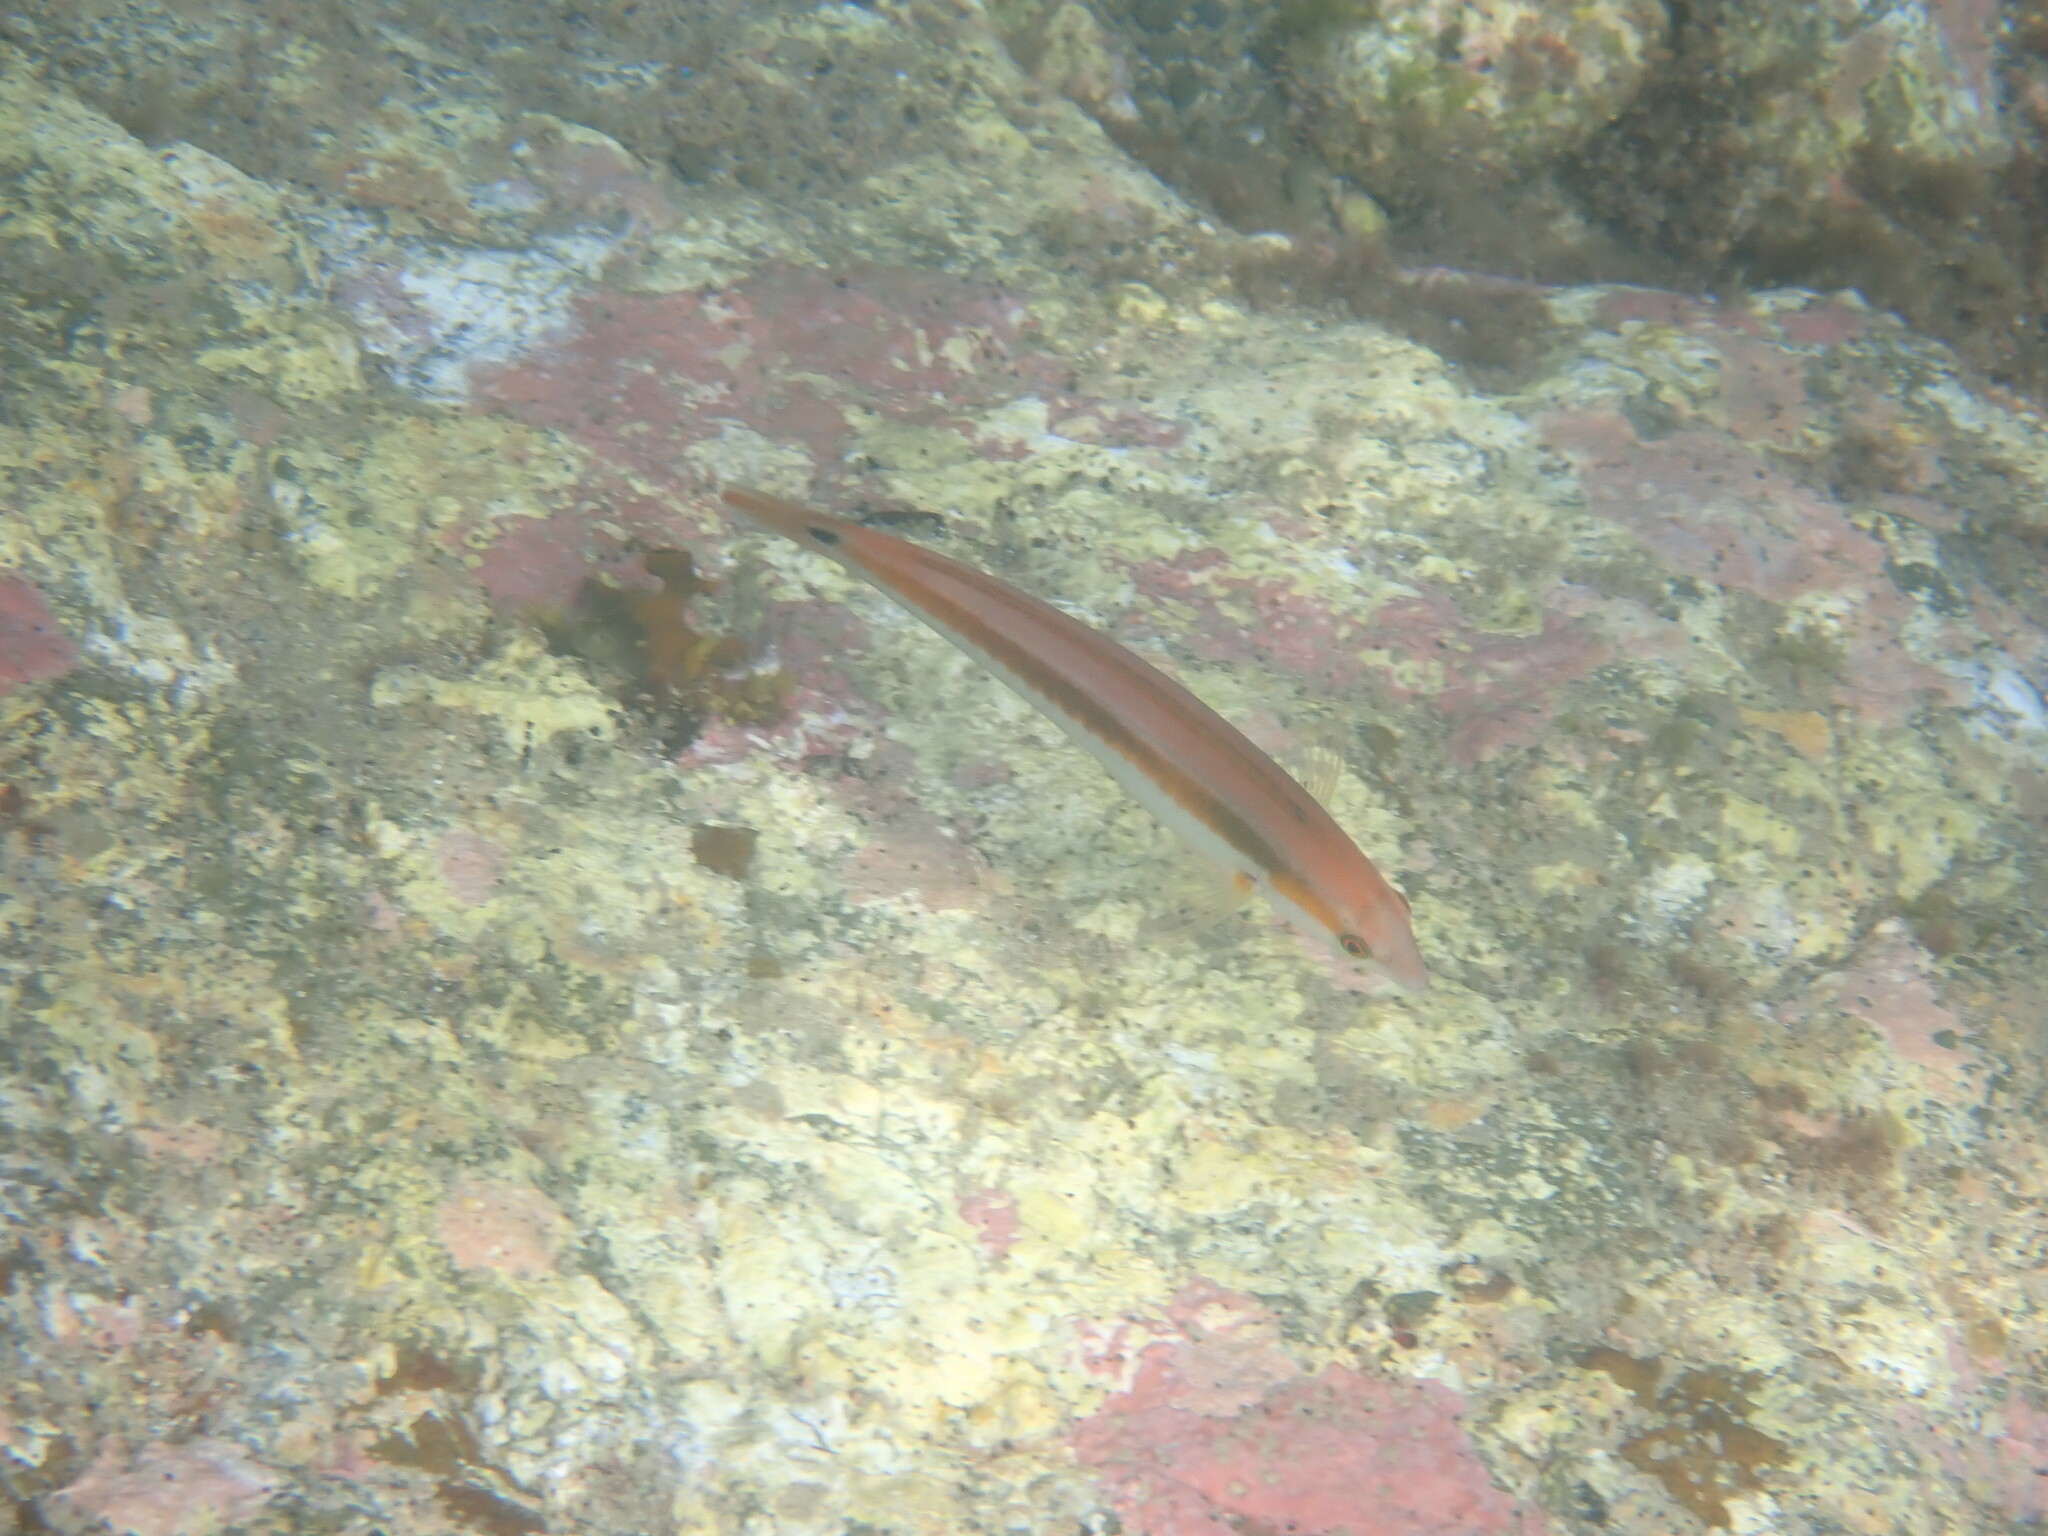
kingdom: Animalia
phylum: Chordata
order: Perciformes
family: Labridae
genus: Coris
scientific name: Coris sandeyeri
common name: Sandager's wrasse
